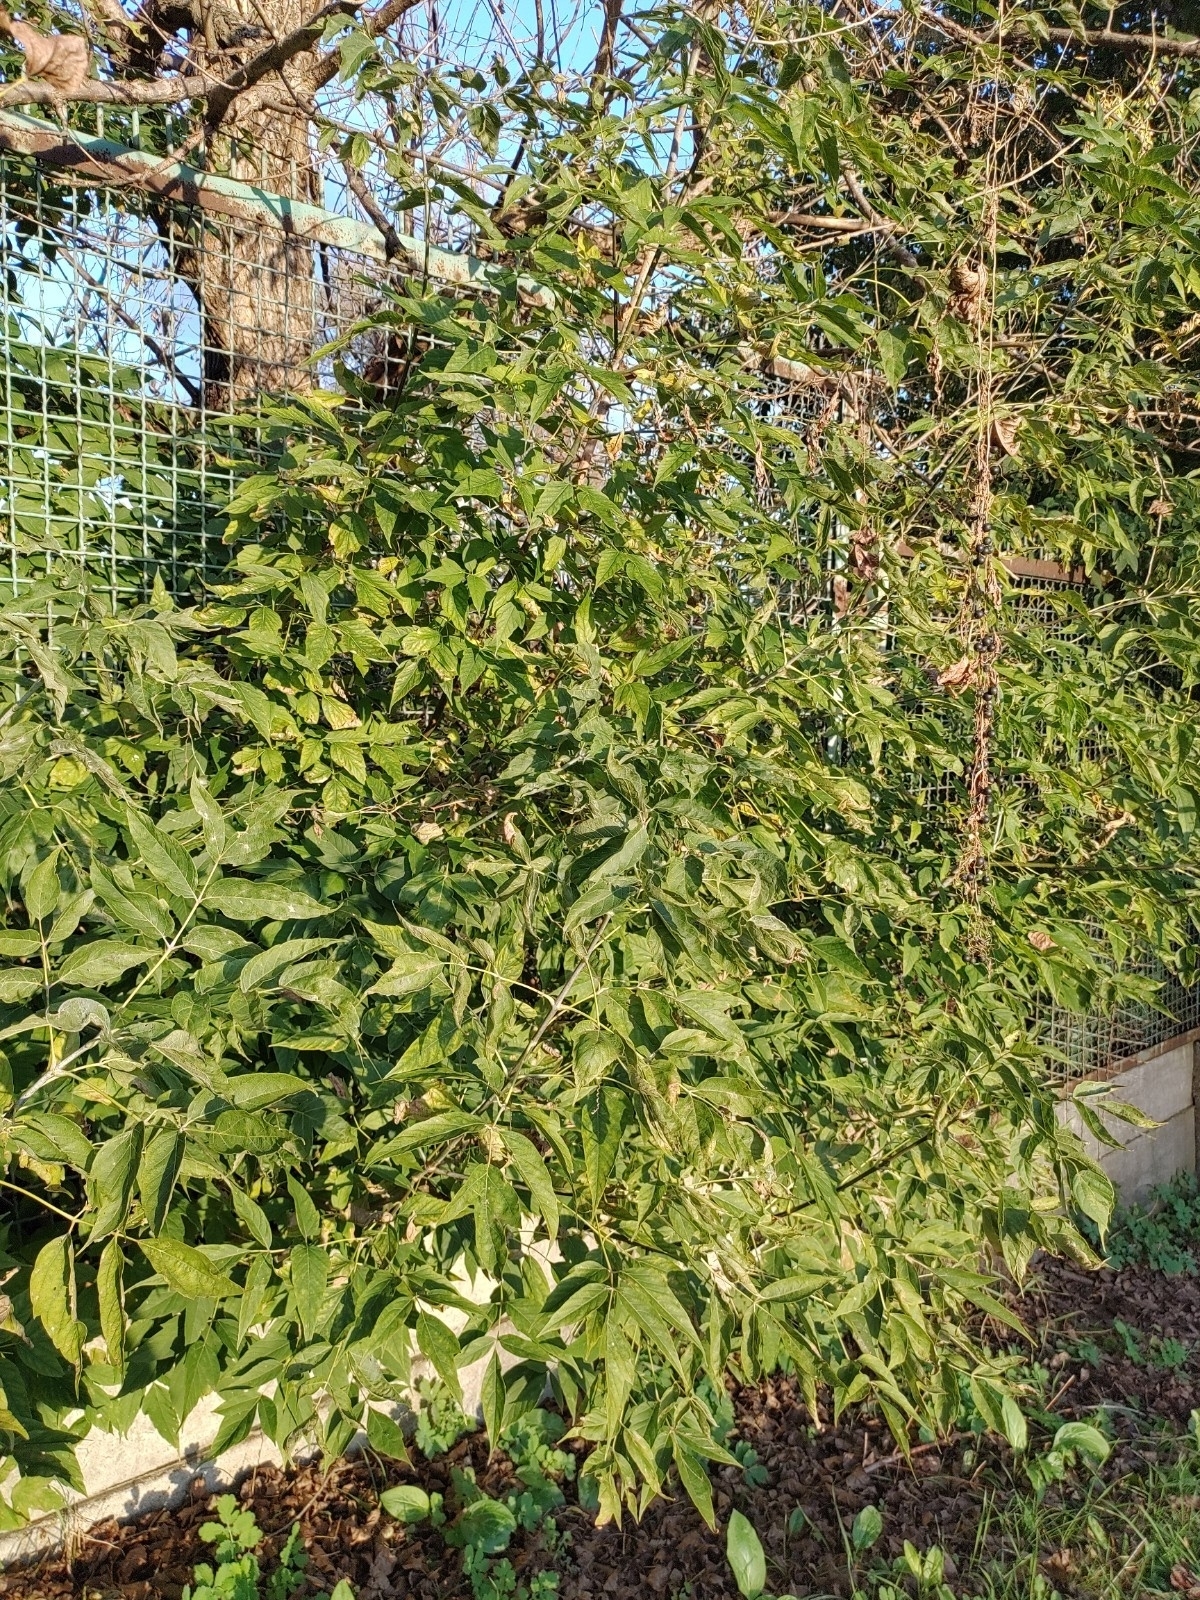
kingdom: Plantae
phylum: Tracheophyta
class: Magnoliopsida
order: Sapindales
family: Sapindaceae
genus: Acer
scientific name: Acer negundo
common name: Ashleaf maple
